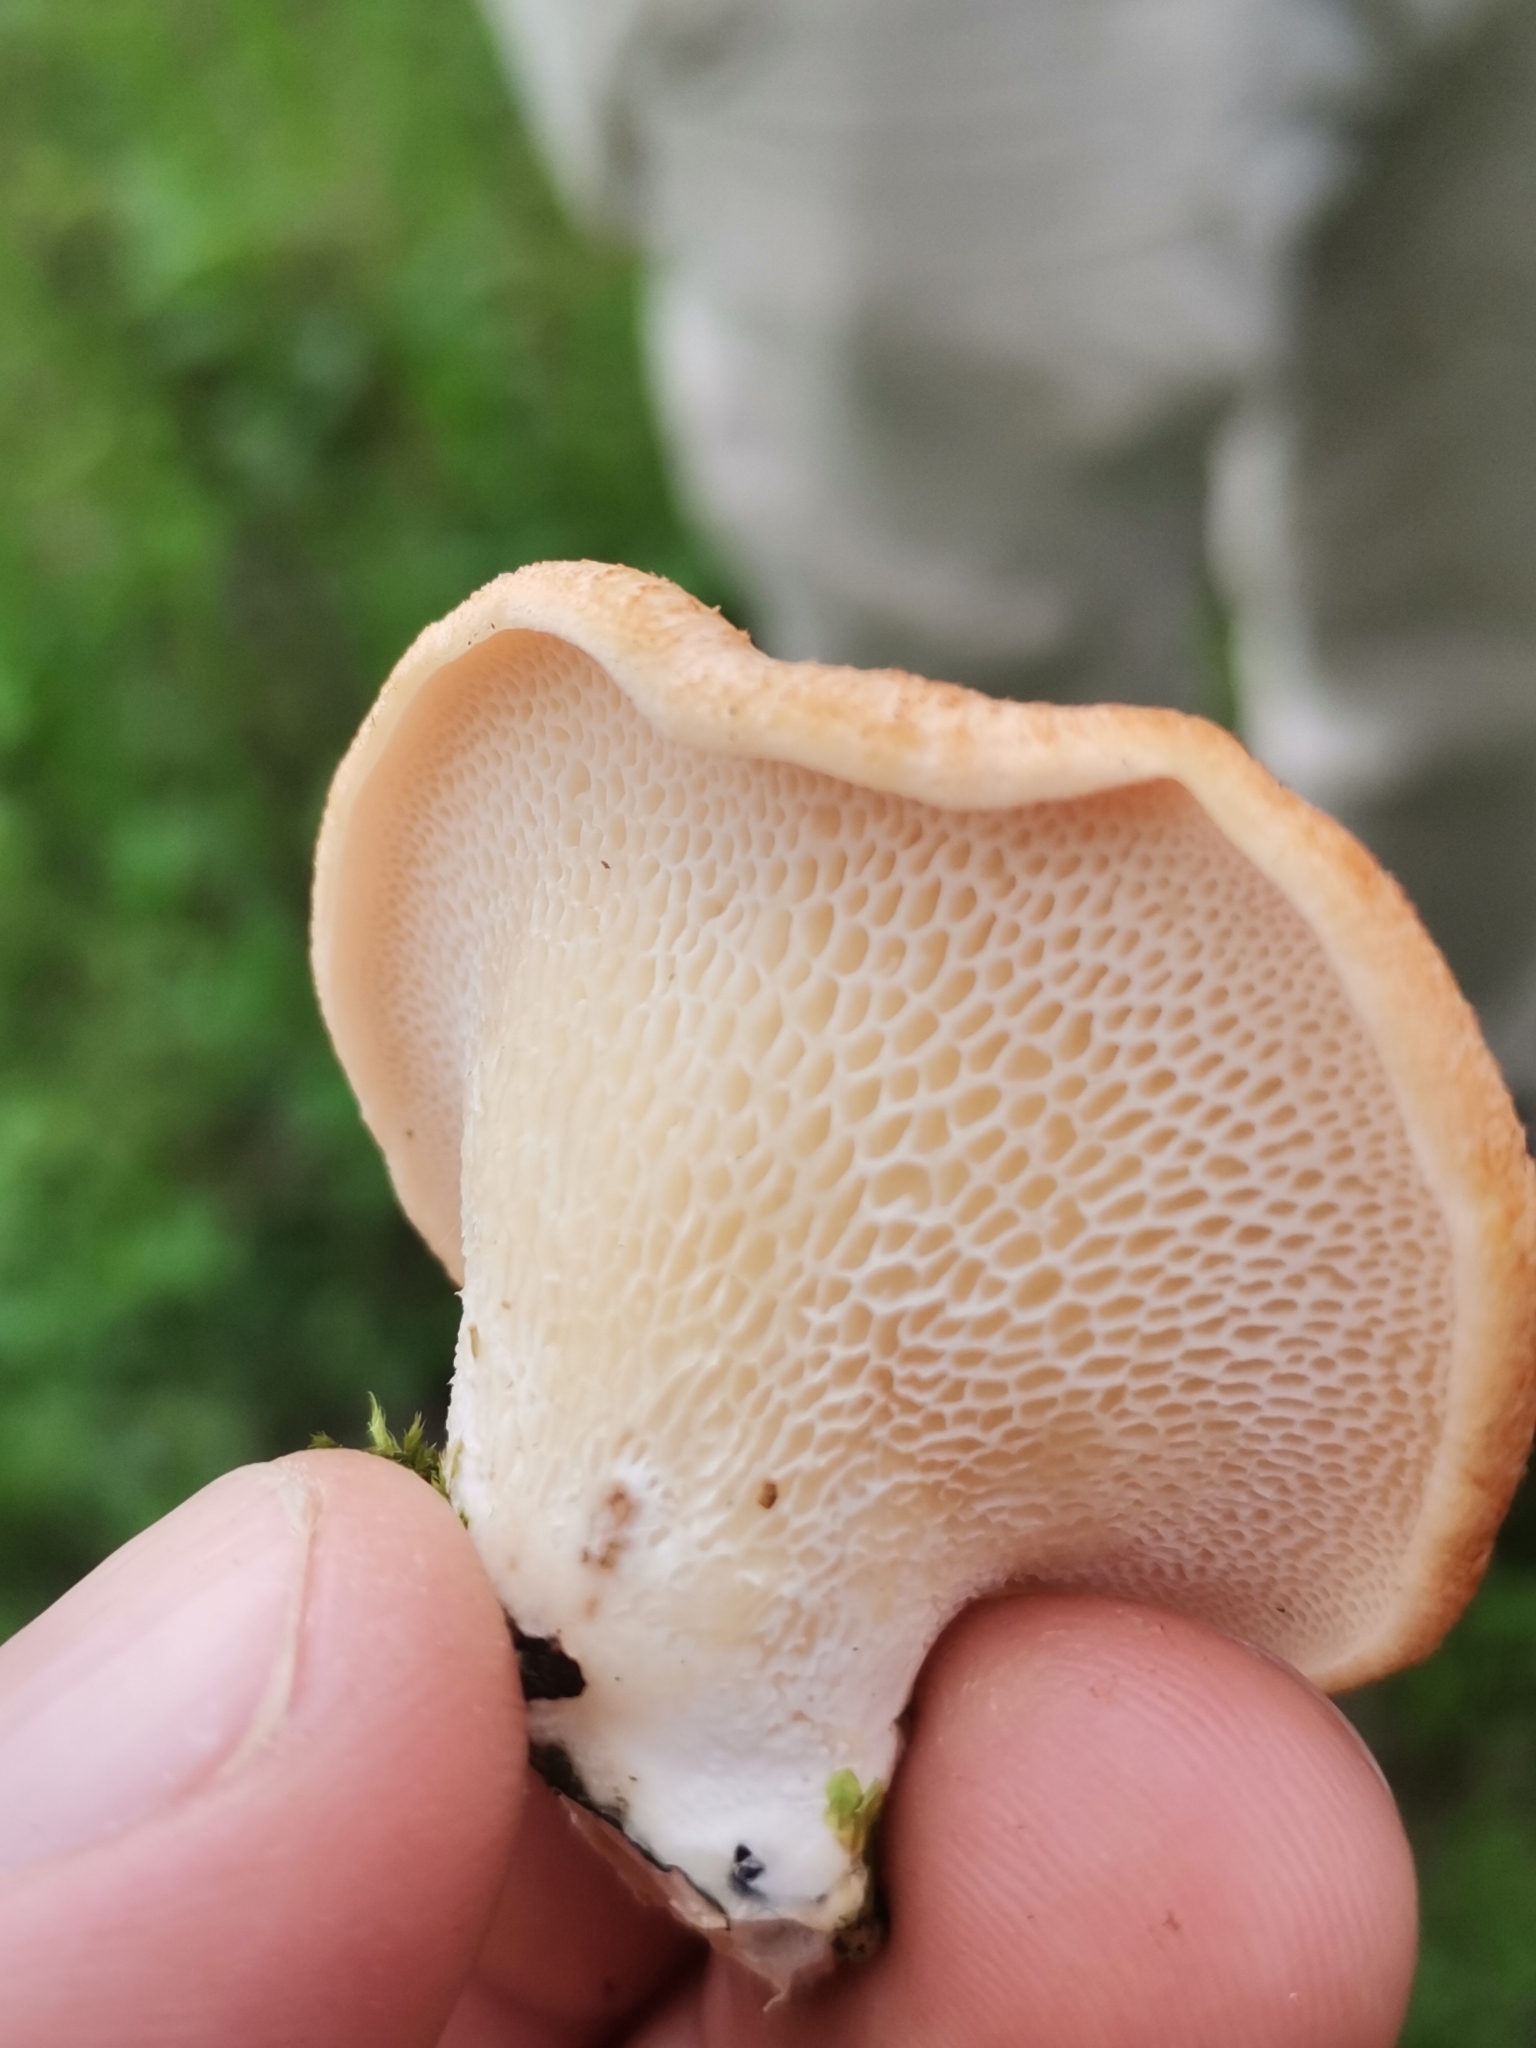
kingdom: Fungi
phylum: Basidiomycota
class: Agaricomycetes
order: Polyporales
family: Polyporaceae
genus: Neofavolus
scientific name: Neofavolus alveolaris
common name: Hexagonal-pored polypore
